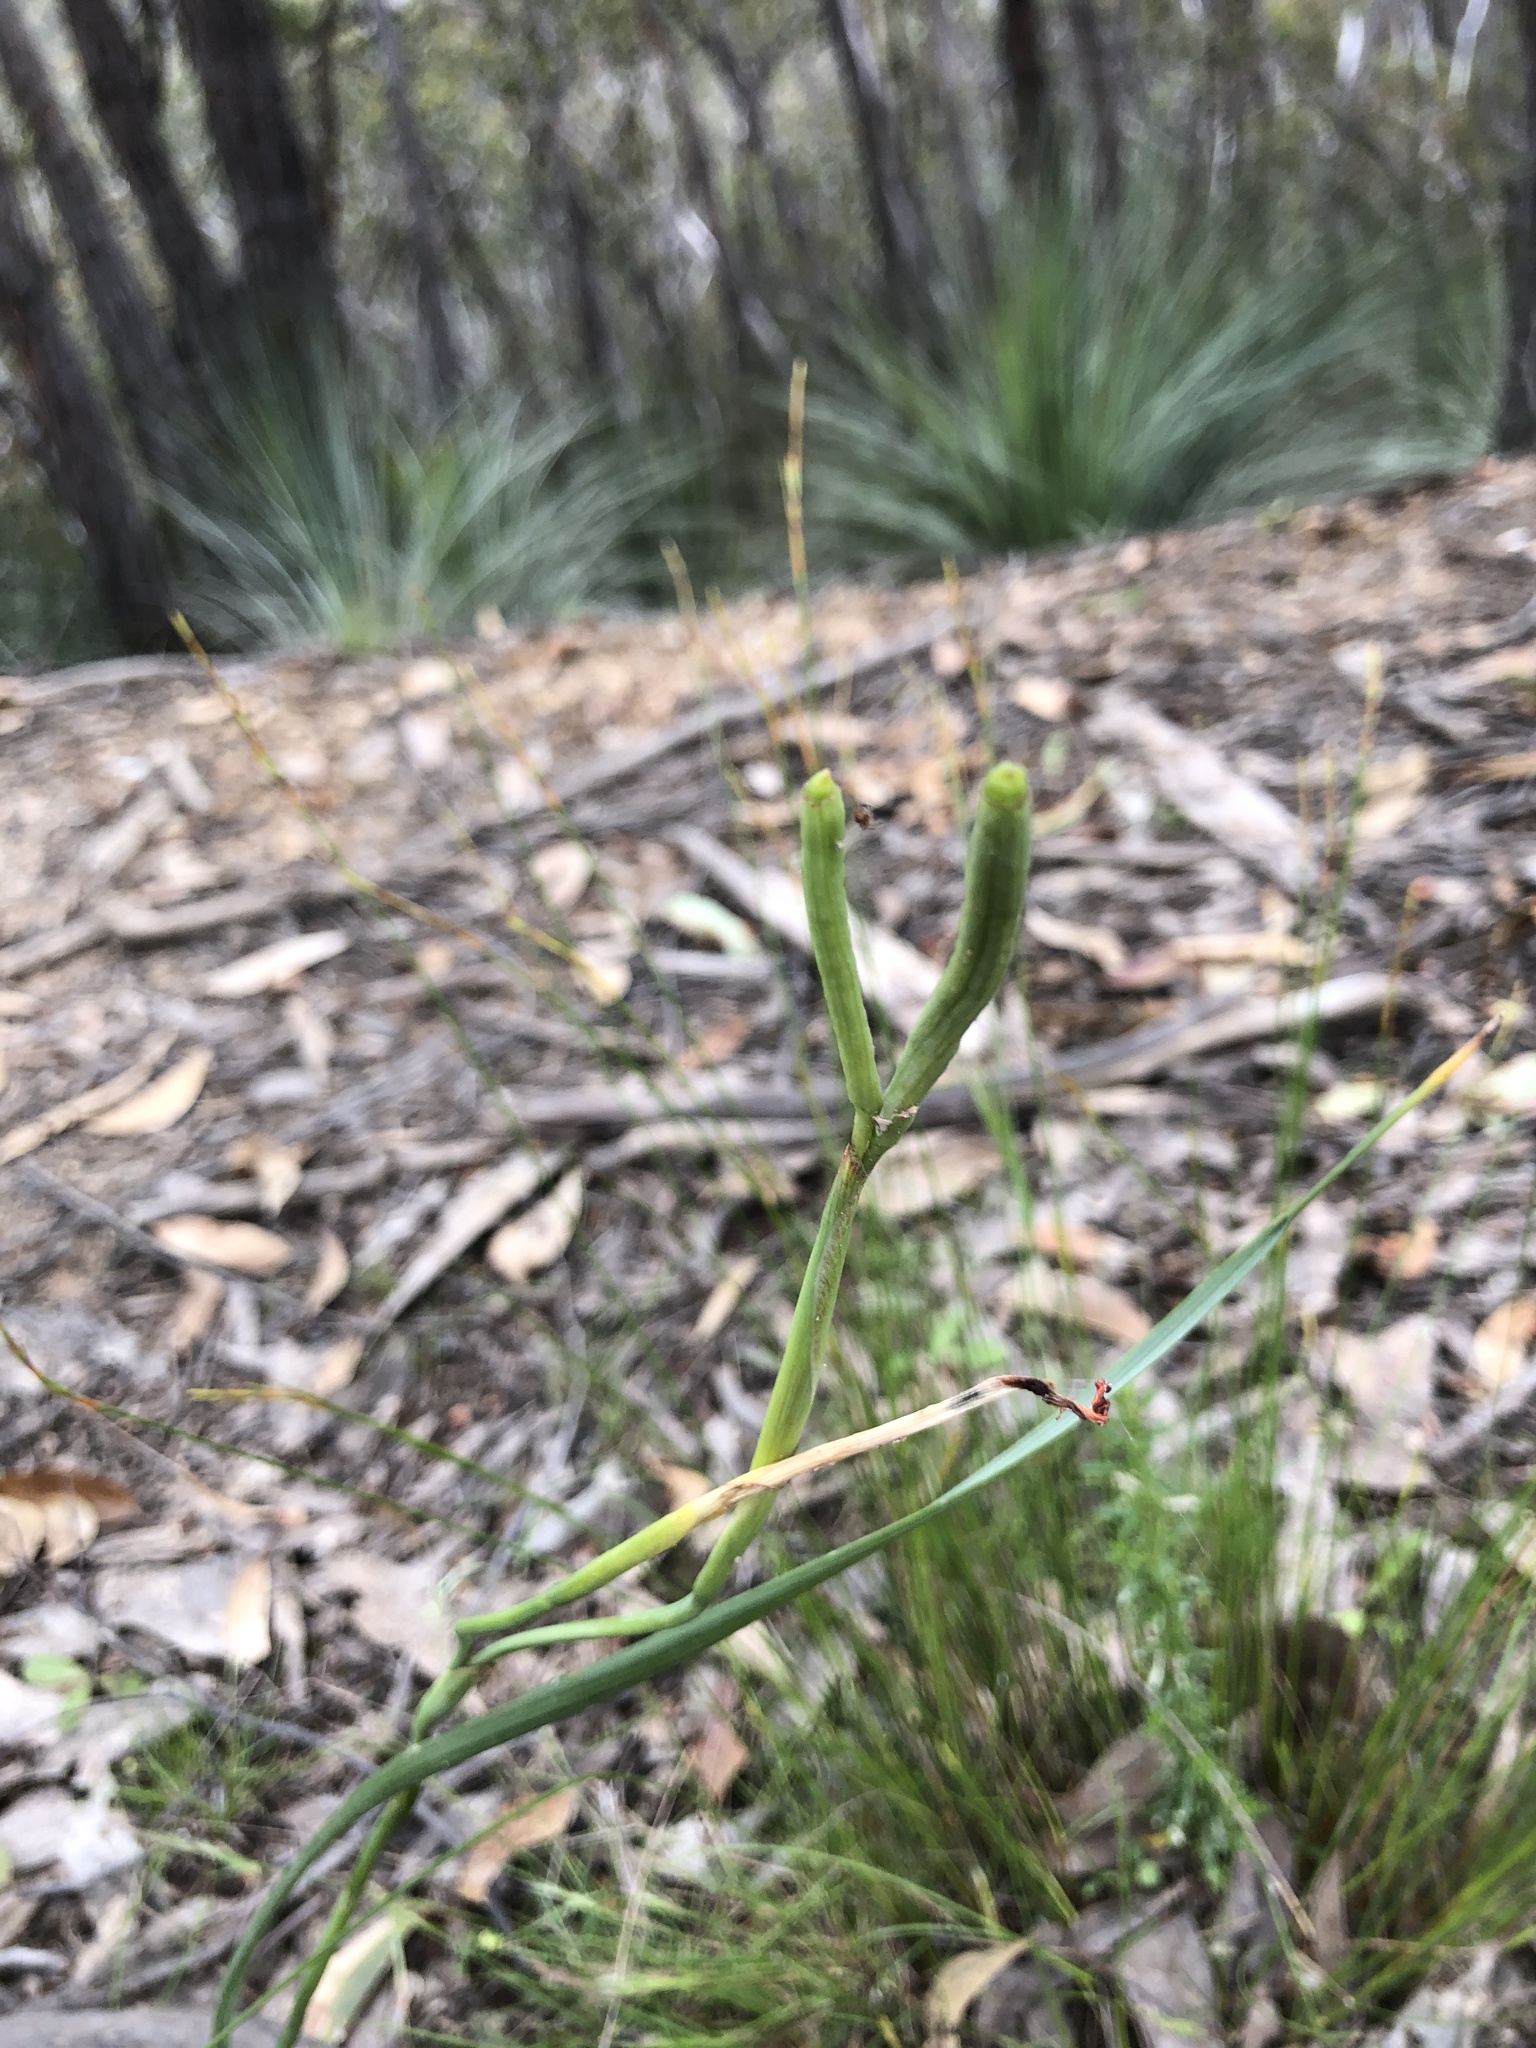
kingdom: Plantae
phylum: Tracheophyta
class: Liliopsida
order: Asparagales
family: Iridaceae
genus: Moraea
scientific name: Moraea flaccida
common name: One-leaf cape-tulip
